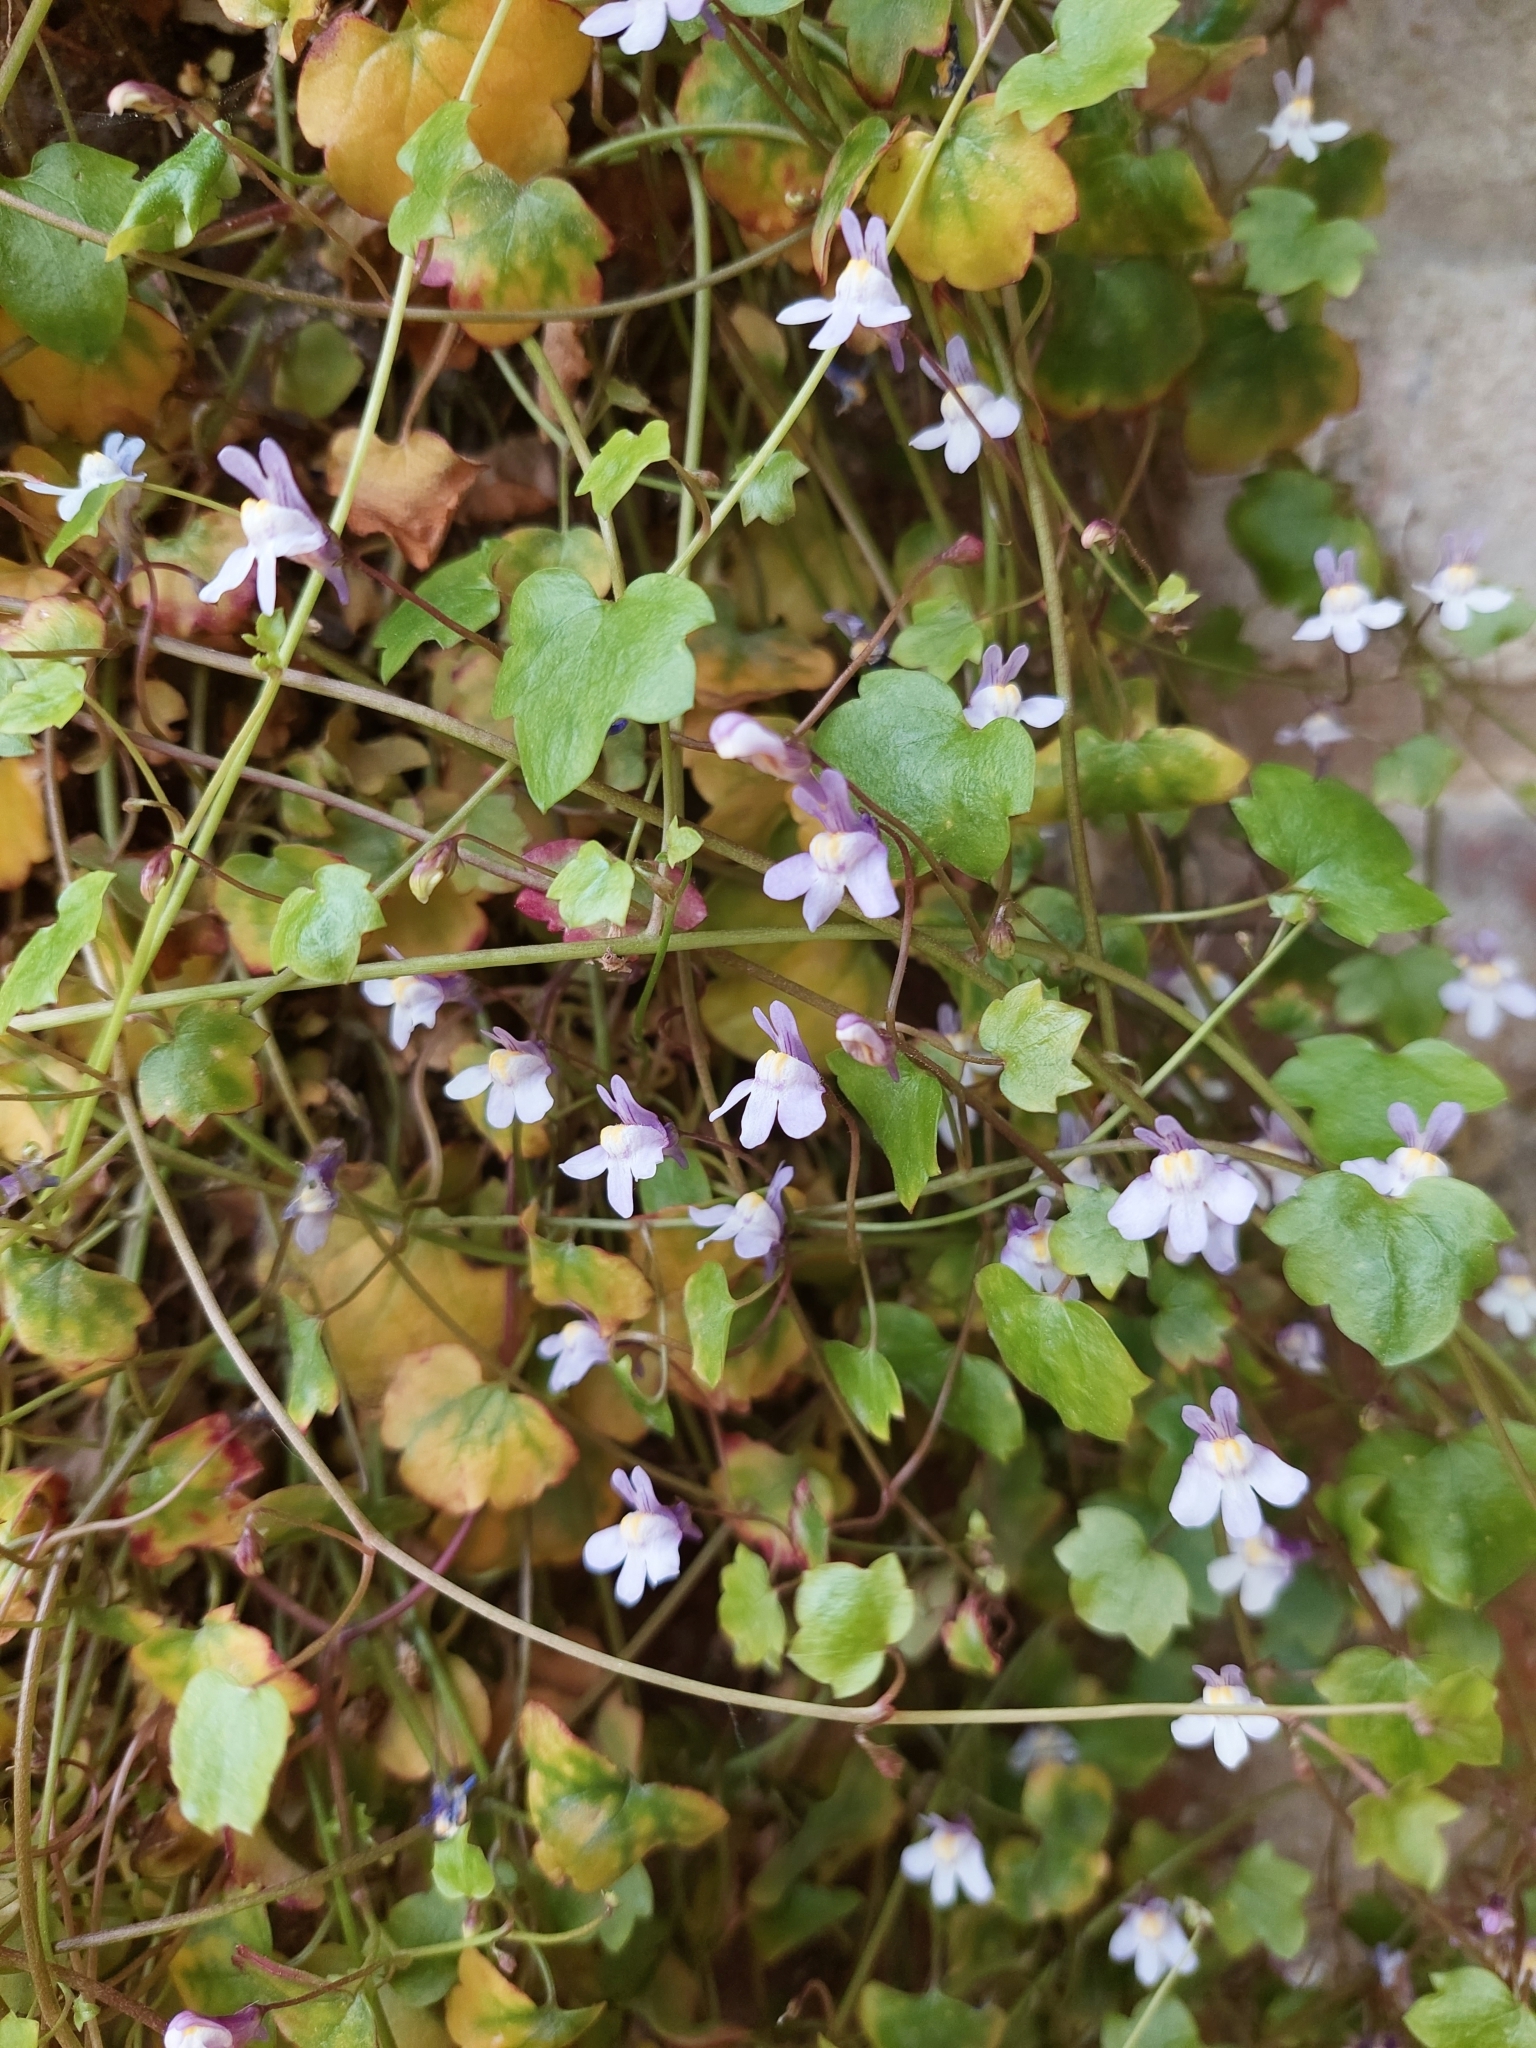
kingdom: Plantae
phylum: Tracheophyta
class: Magnoliopsida
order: Lamiales
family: Plantaginaceae
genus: Cymbalaria
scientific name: Cymbalaria muralis
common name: Ivy-leaved toadflax
